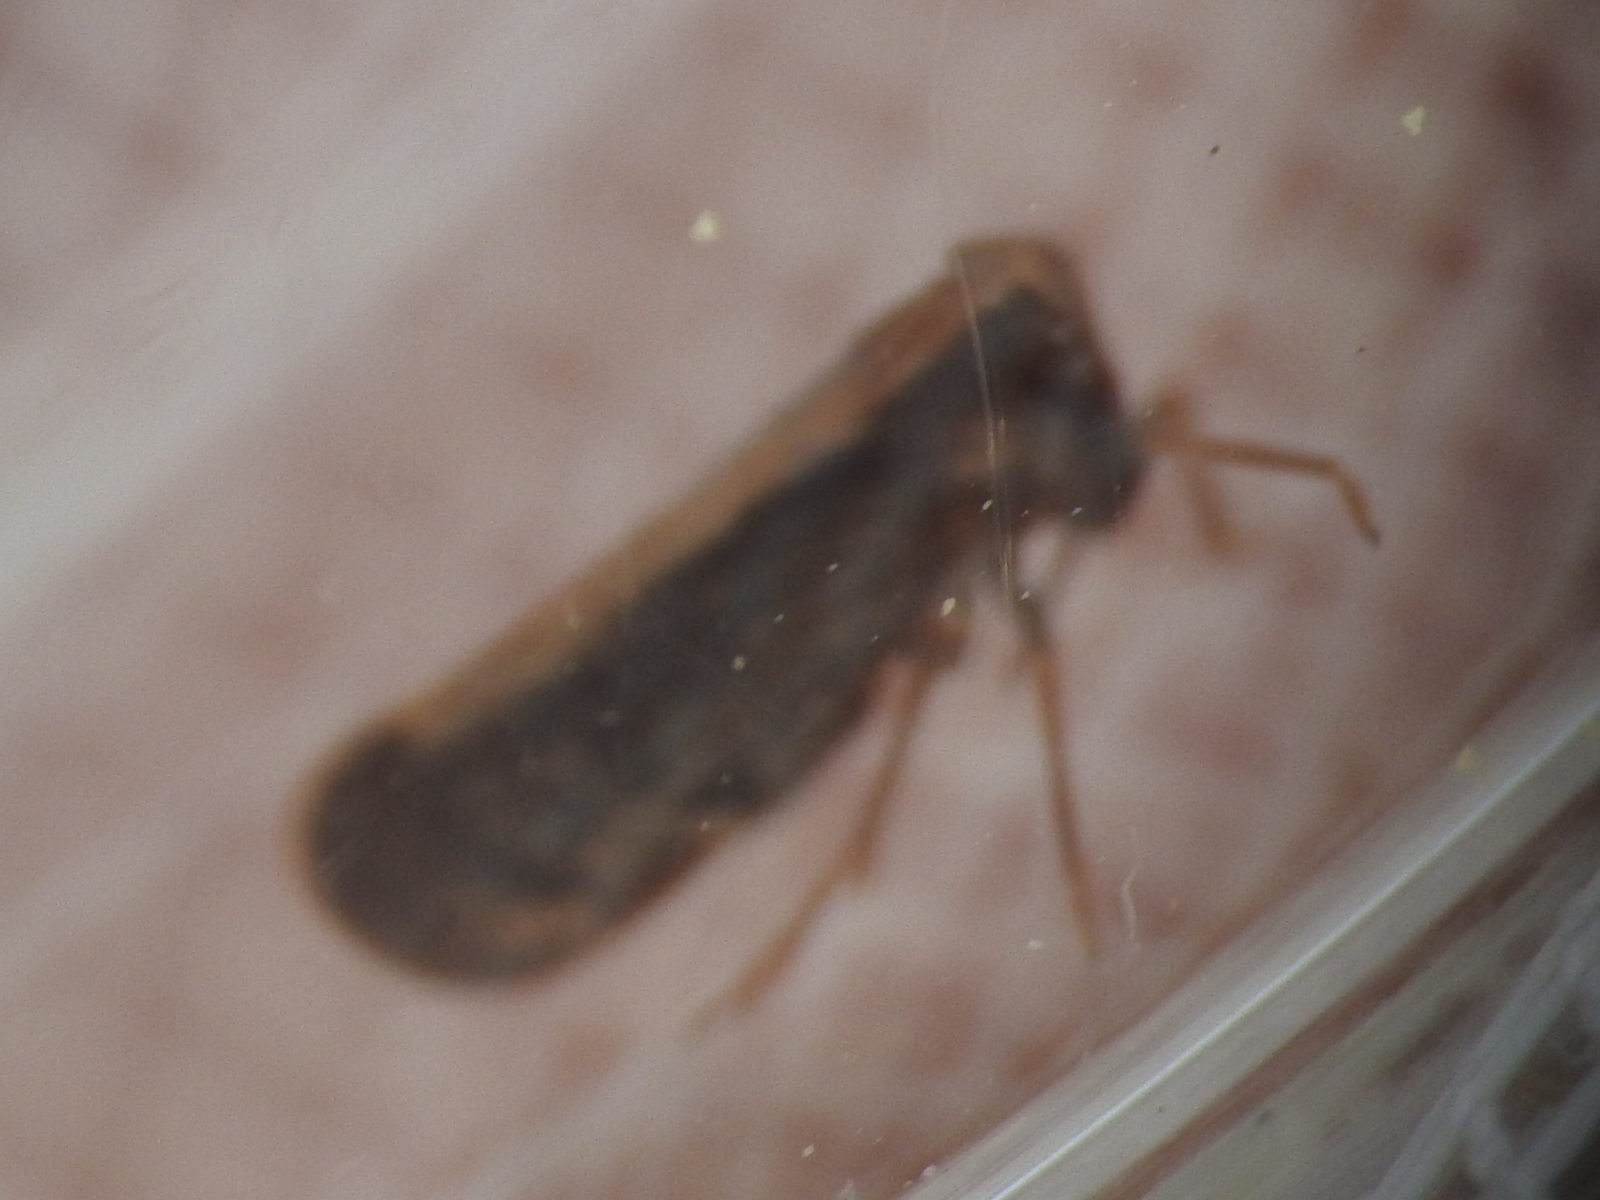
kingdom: Animalia
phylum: Arthropoda
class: Insecta
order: Hemiptera
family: Cixiidae
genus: Pintalia
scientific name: Pintalia delicata
